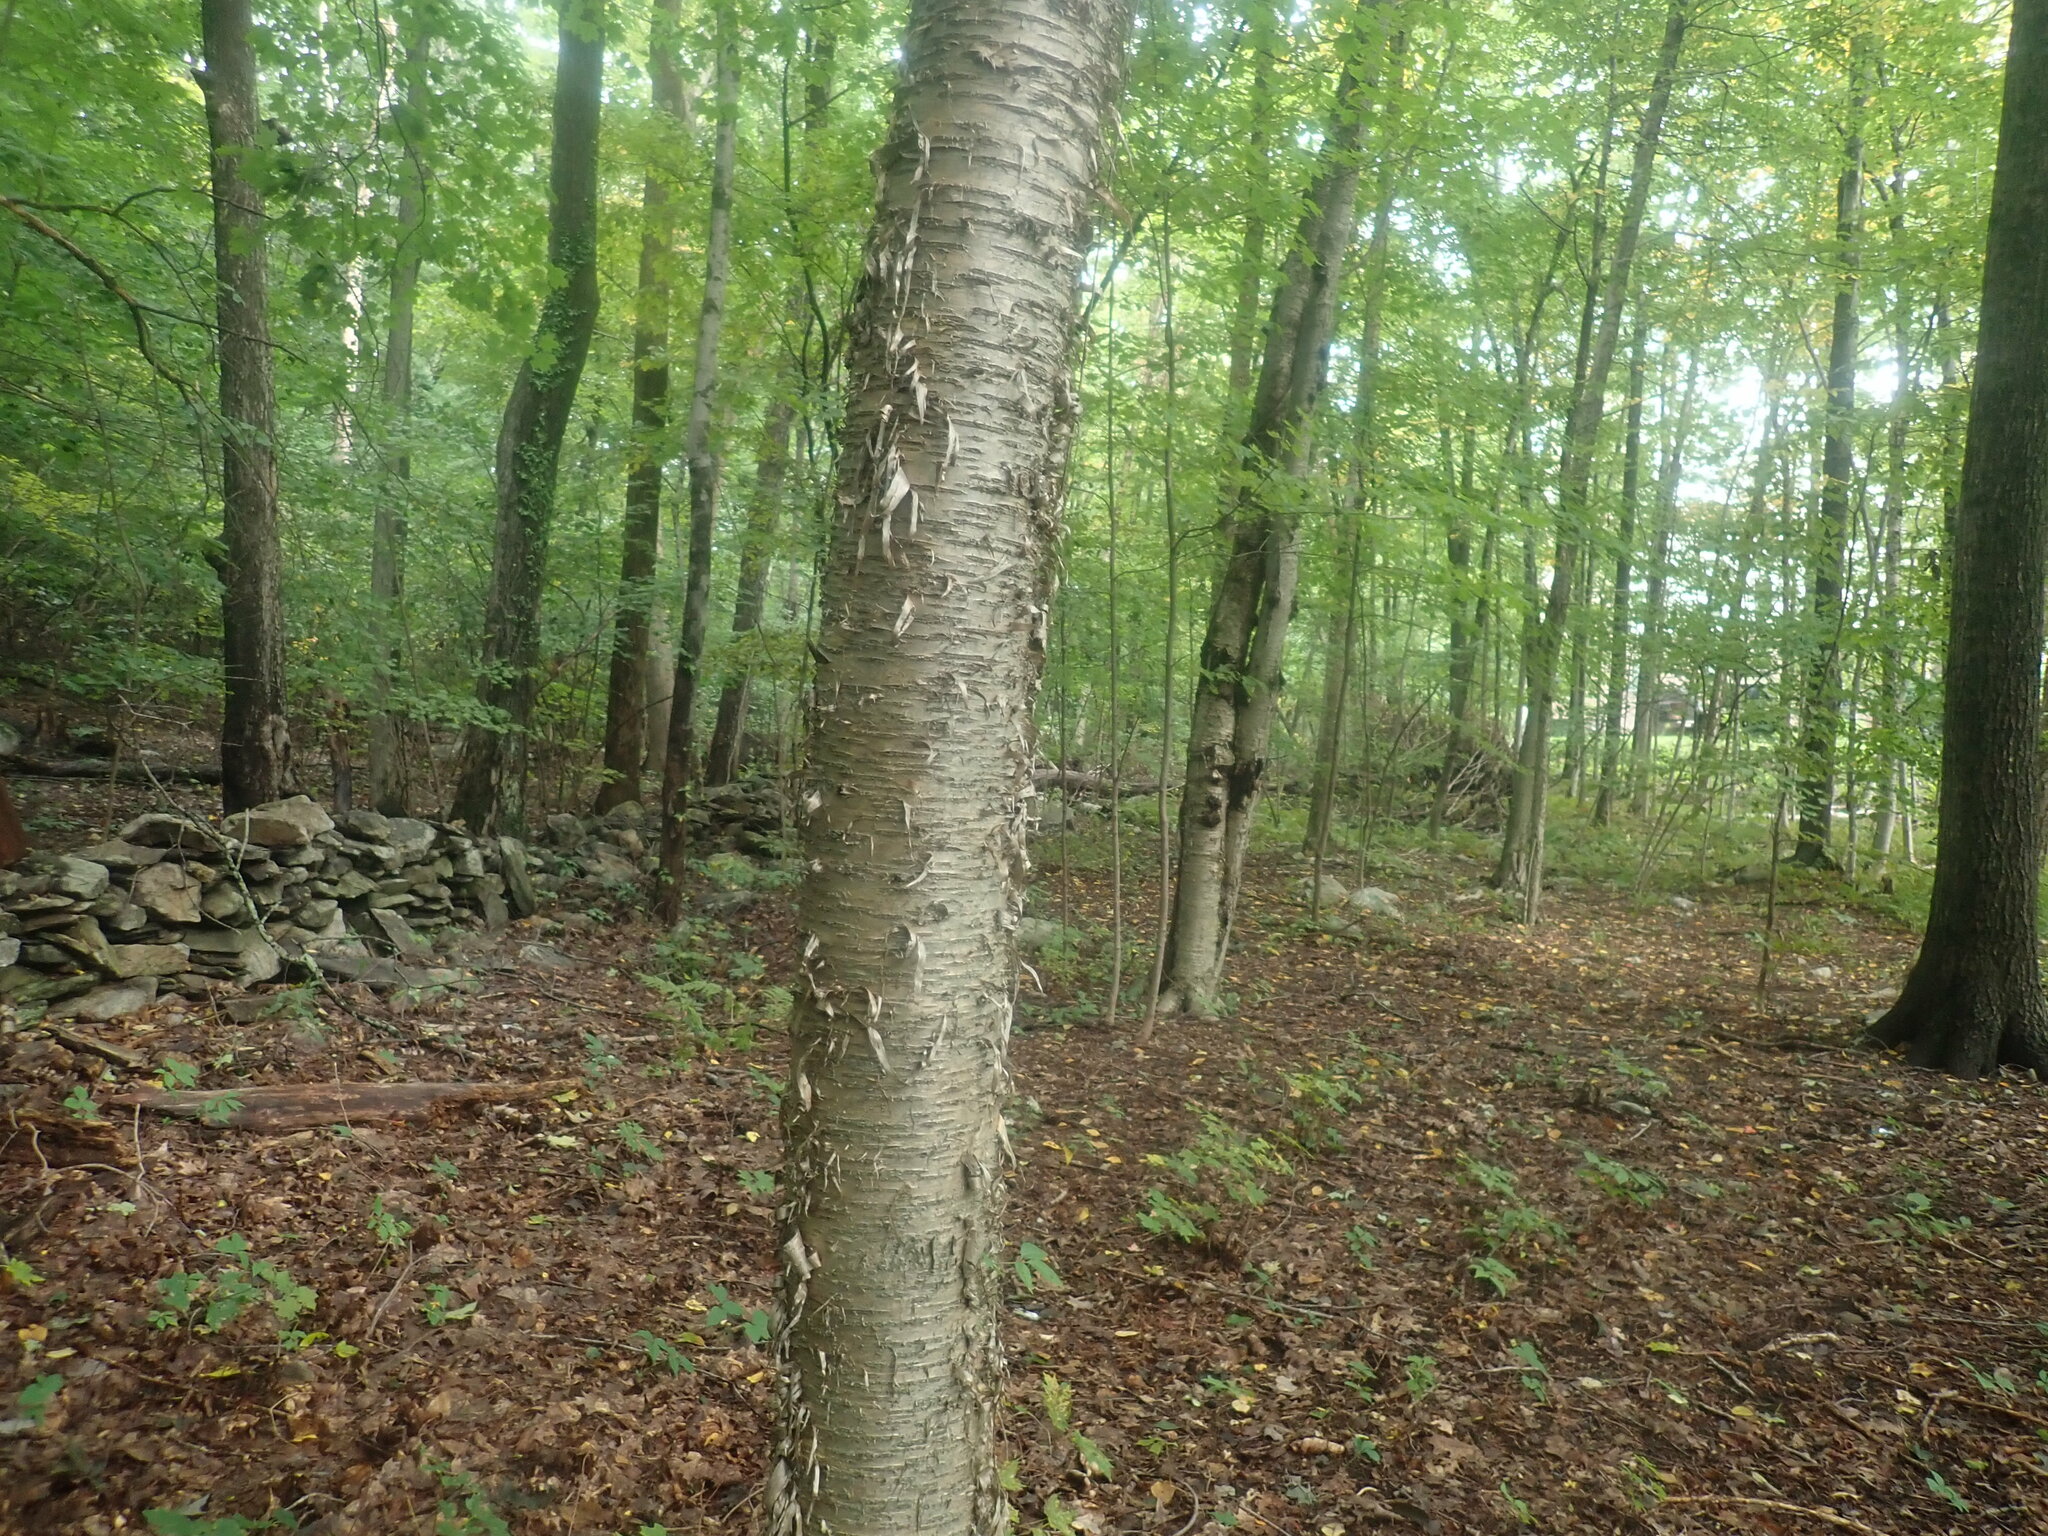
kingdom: Plantae
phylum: Tracheophyta
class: Magnoliopsida
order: Fagales
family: Betulaceae
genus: Betula
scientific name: Betula alleghaniensis
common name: Yellow birch
